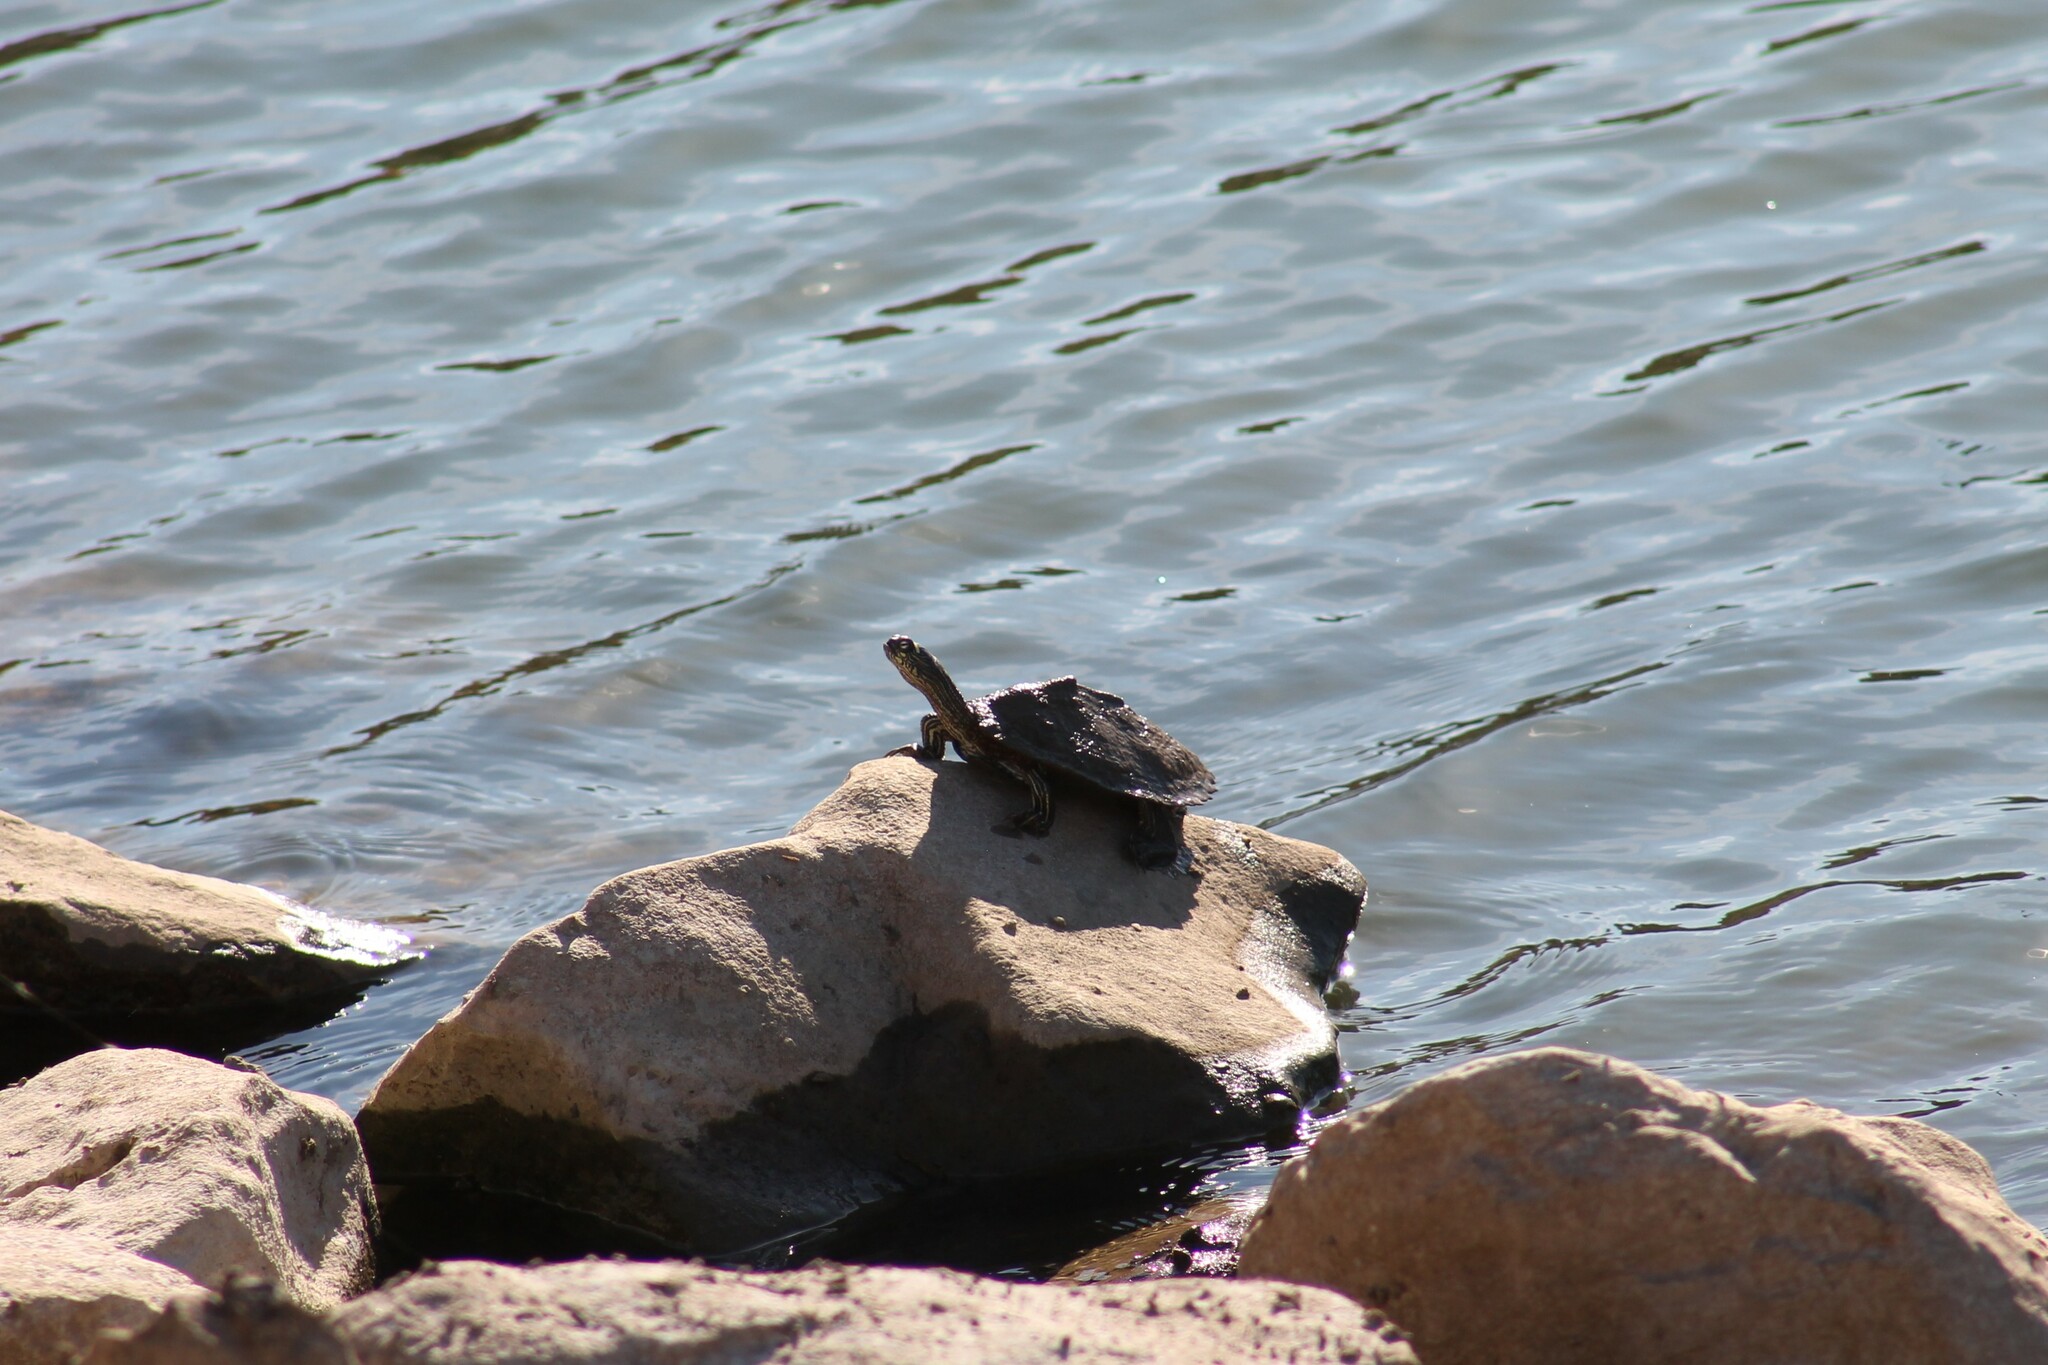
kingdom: Animalia
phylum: Chordata
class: Testudines
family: Emydidae
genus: Graptemys
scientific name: Graptemys ouachitensis
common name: Ouachita map turtle
